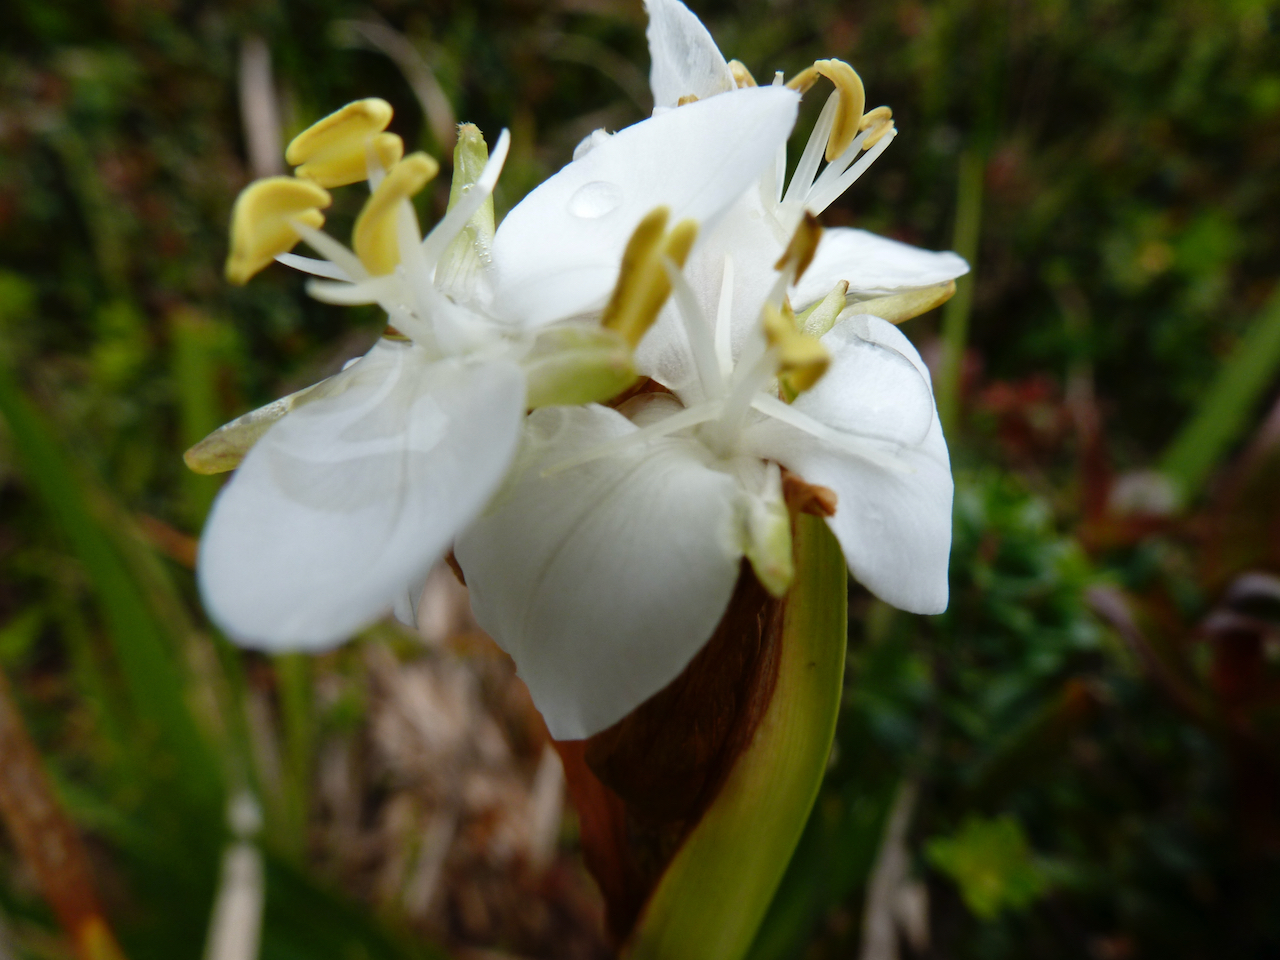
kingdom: Plantae
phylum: Tracheophyta
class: Liliopsida
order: Asparagales
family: Iridaceae
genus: Libertia
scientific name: Libertia chilensis
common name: Satin flower
